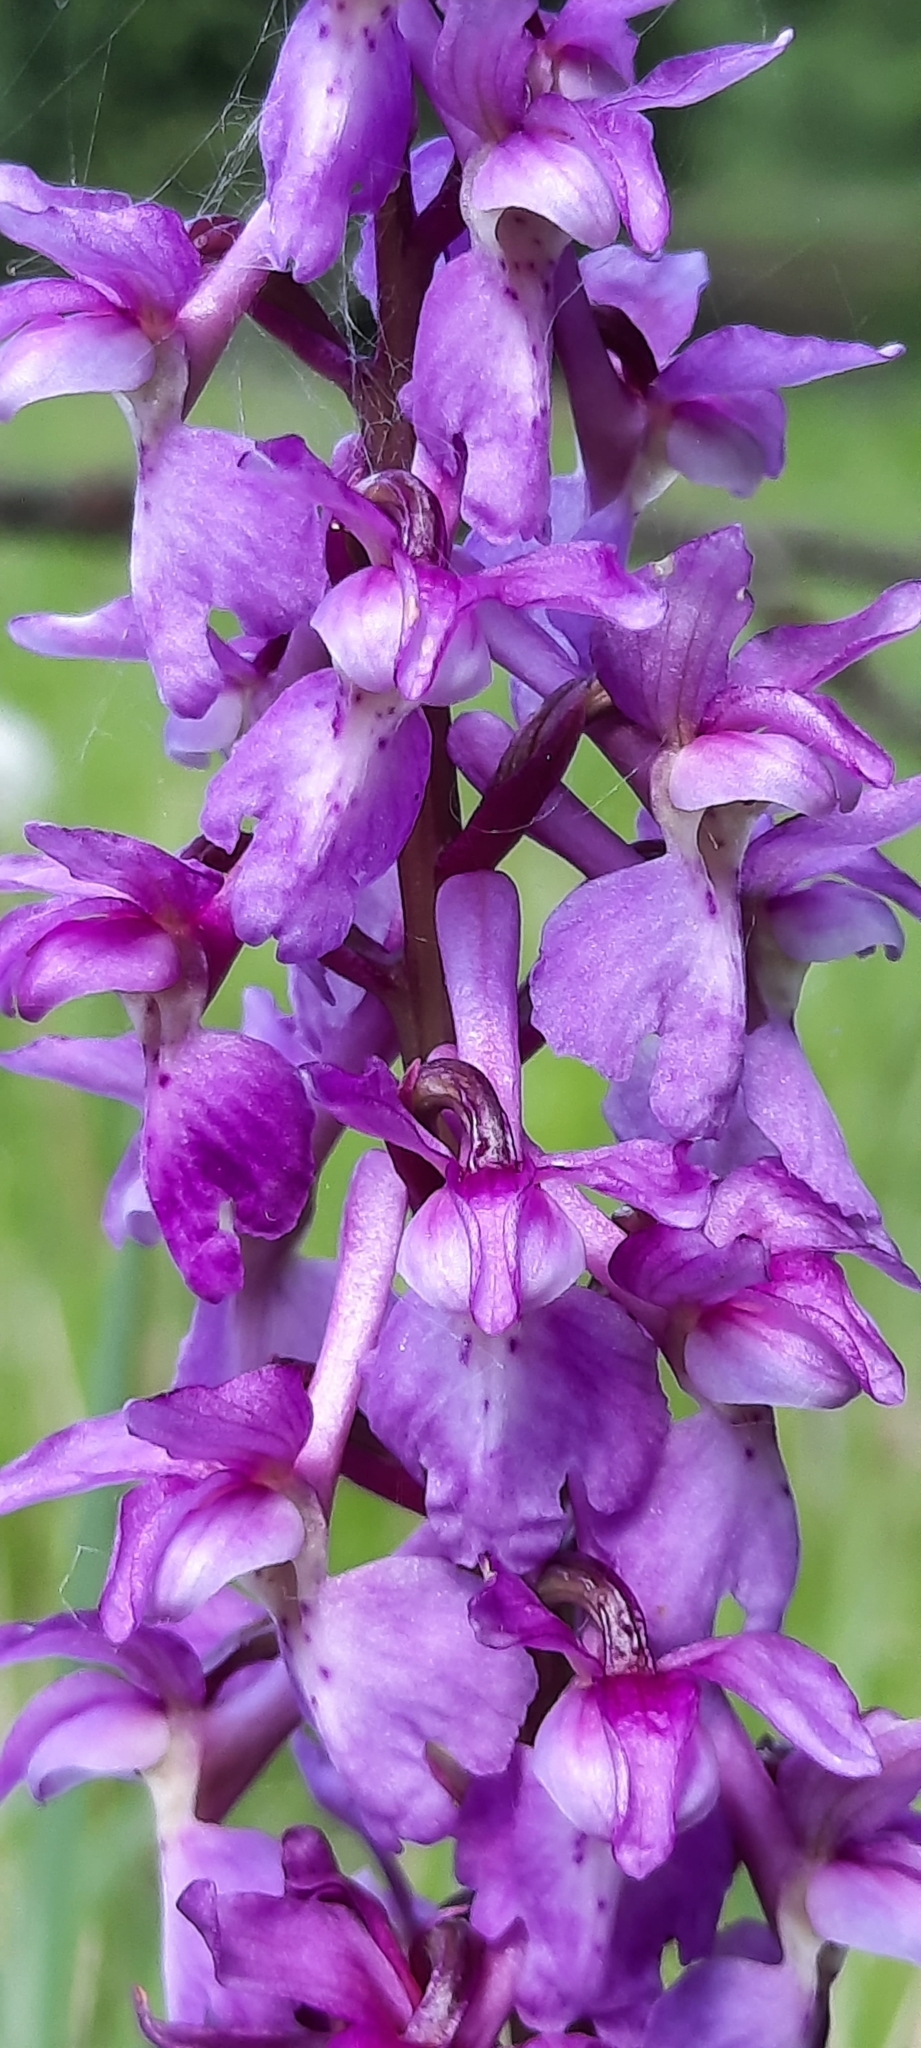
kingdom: Plantae
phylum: Tracheophyta
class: Liliopsida
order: Asparagales
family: Orchidaceae
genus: Orchis
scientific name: Orchis mascula
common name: Early-purple orchid
